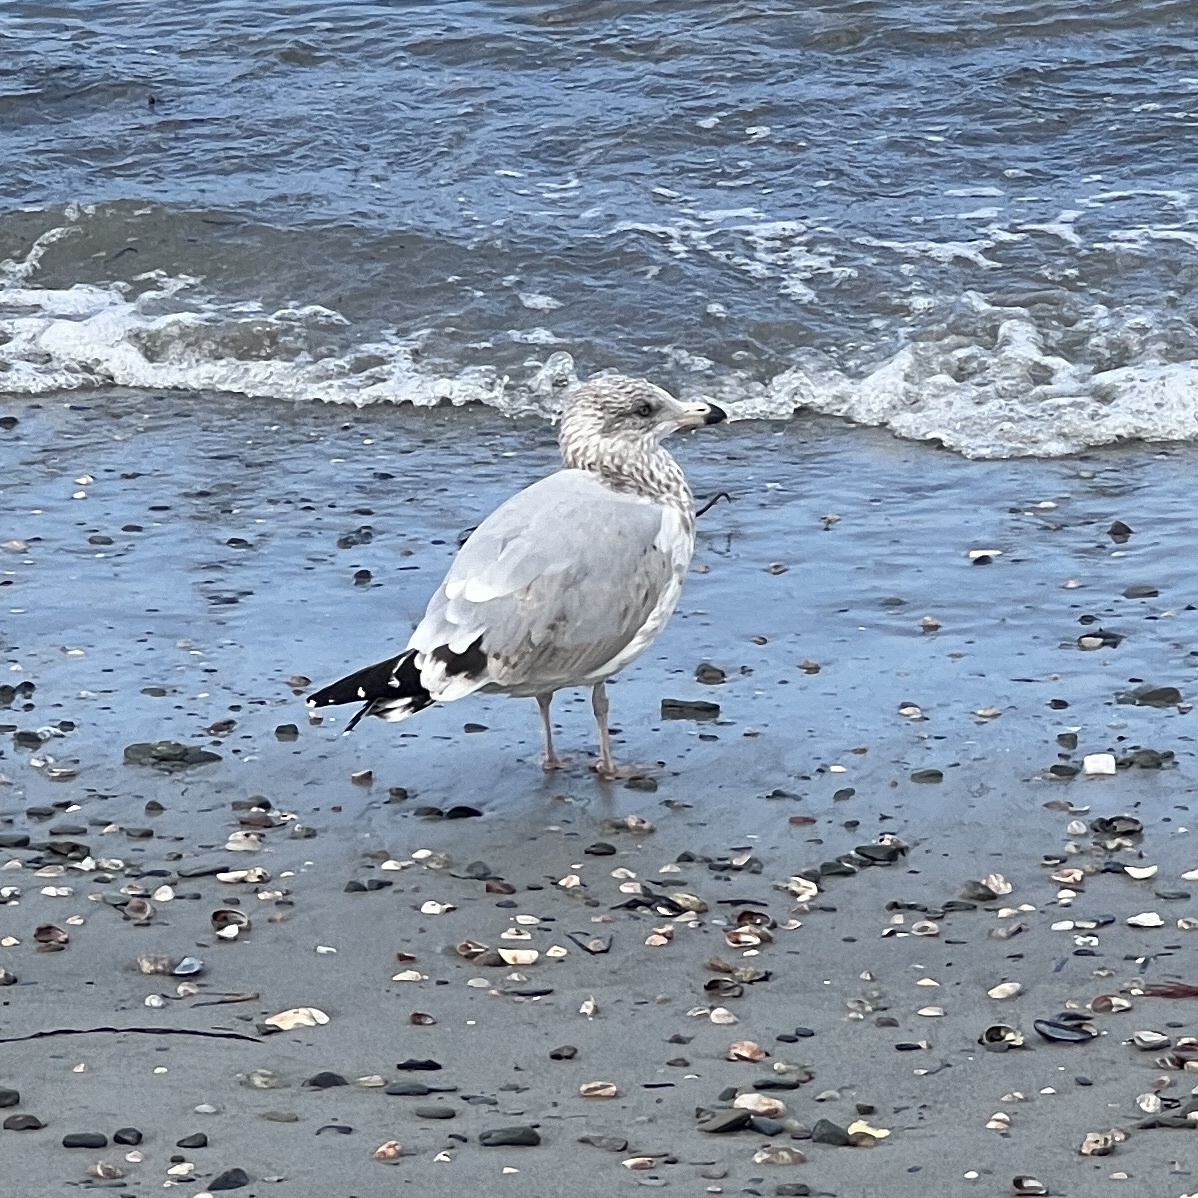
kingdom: Animalia
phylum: Chordata
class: Aves
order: Charadriiformes
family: Laridae
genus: Larus
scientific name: Larus argentatus
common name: Herring gull
